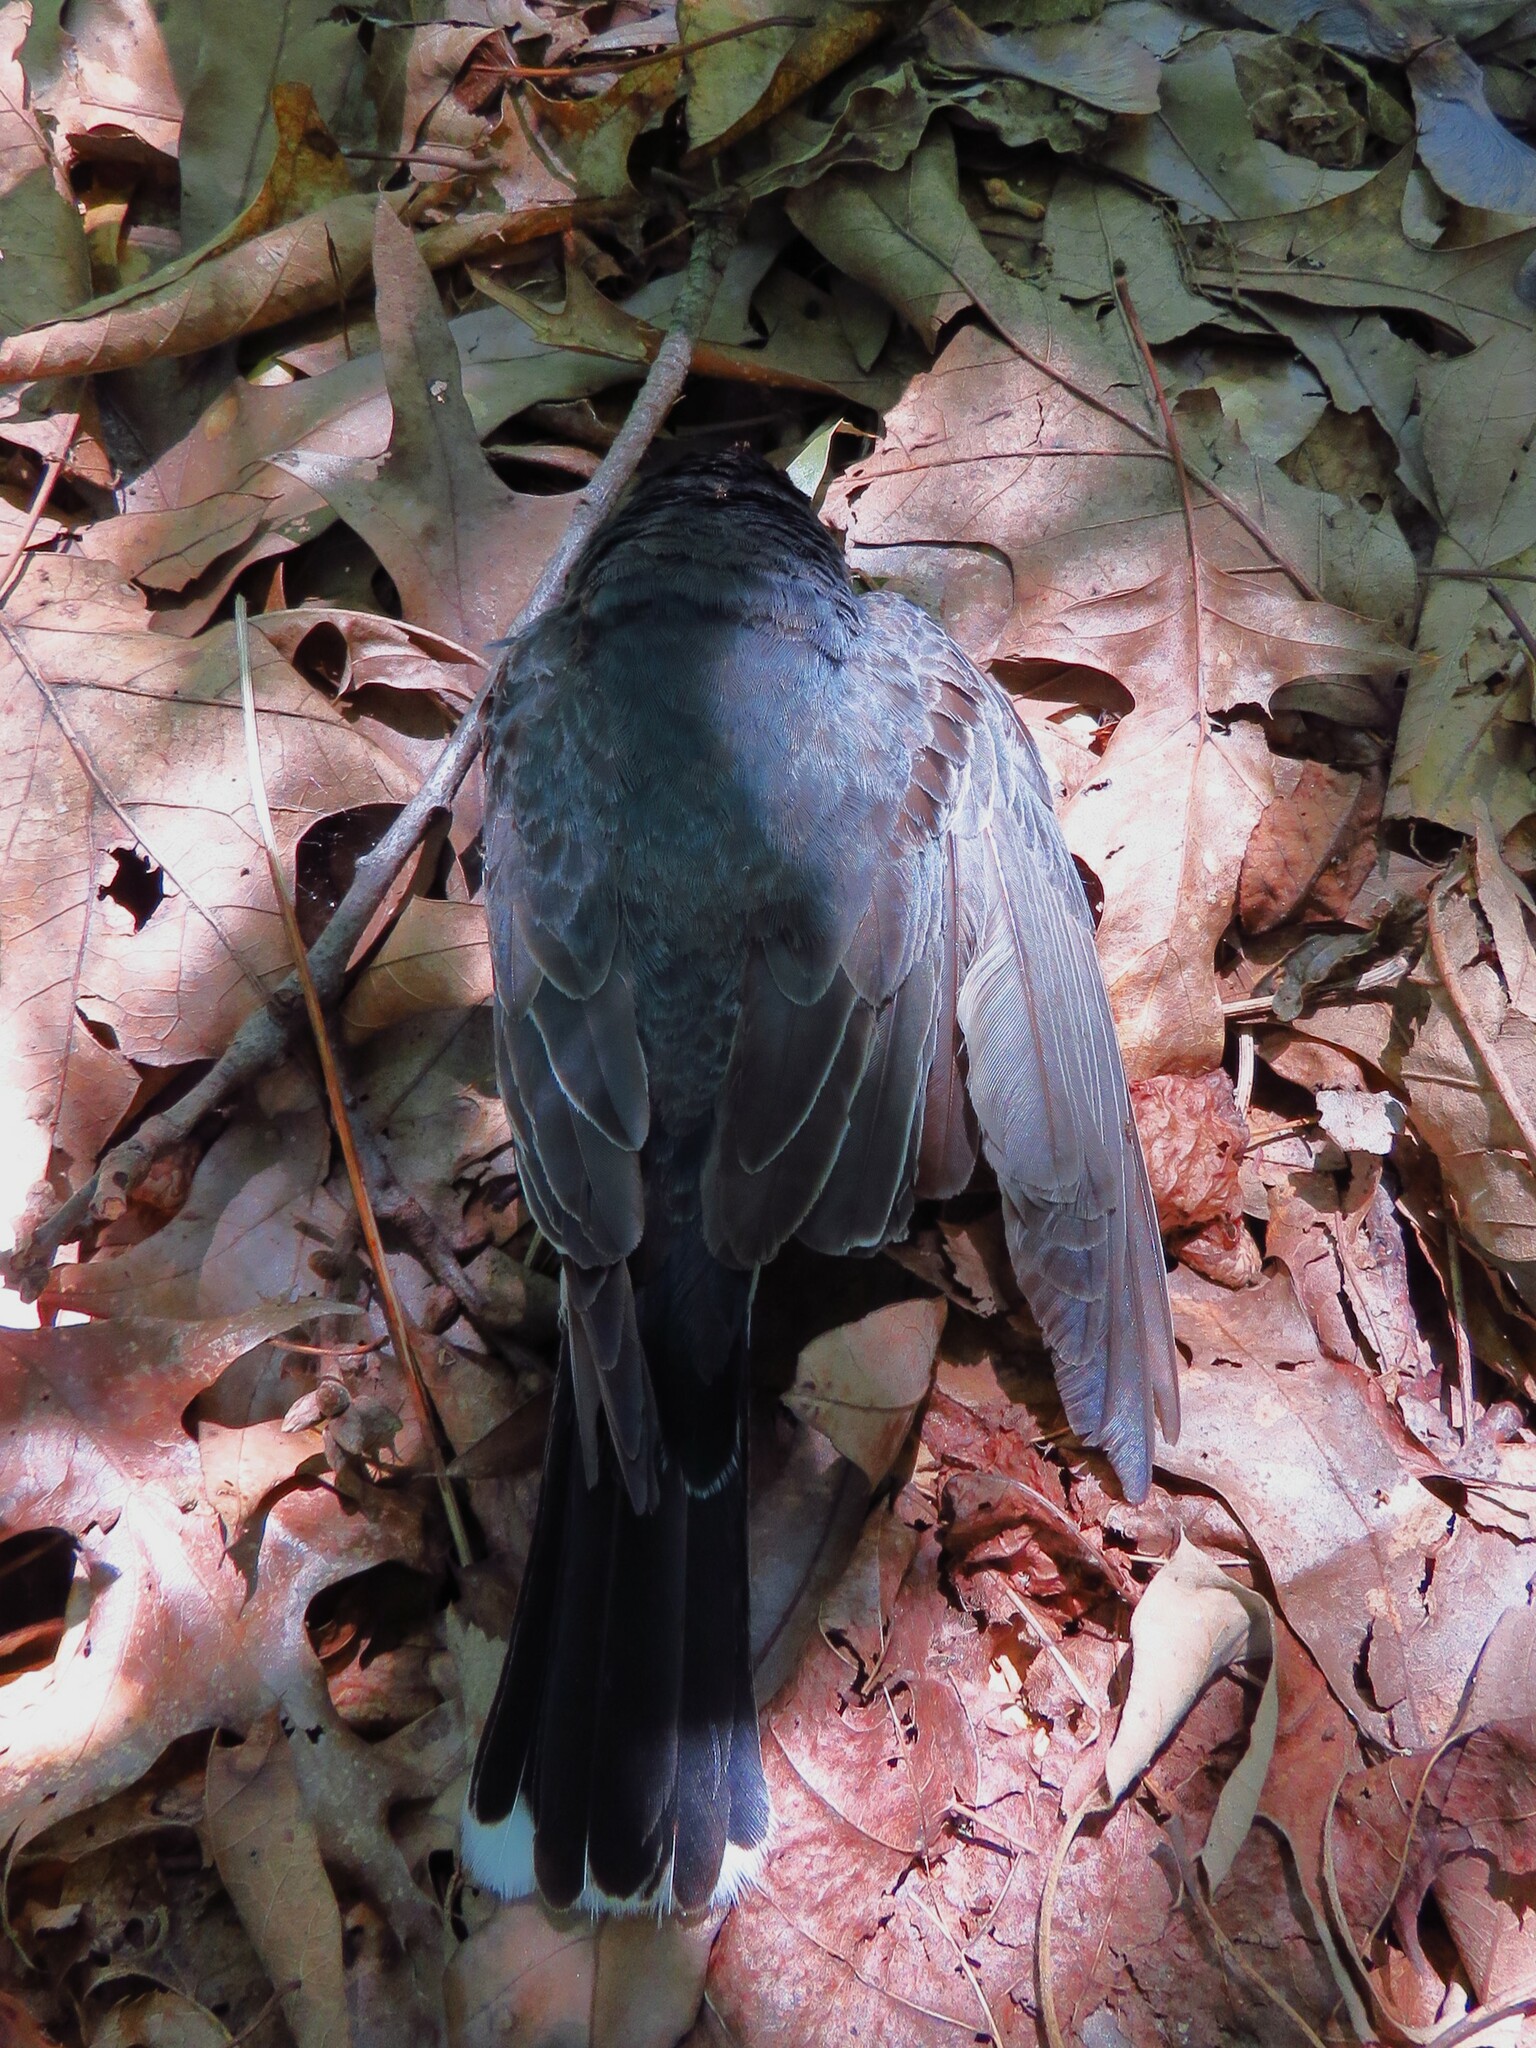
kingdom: Animalia
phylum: Chordata
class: Aves
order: Passeriformes
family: Tyrannidae
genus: Tyrannus
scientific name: Tyrannus tyrannus
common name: Eastern kingbird
